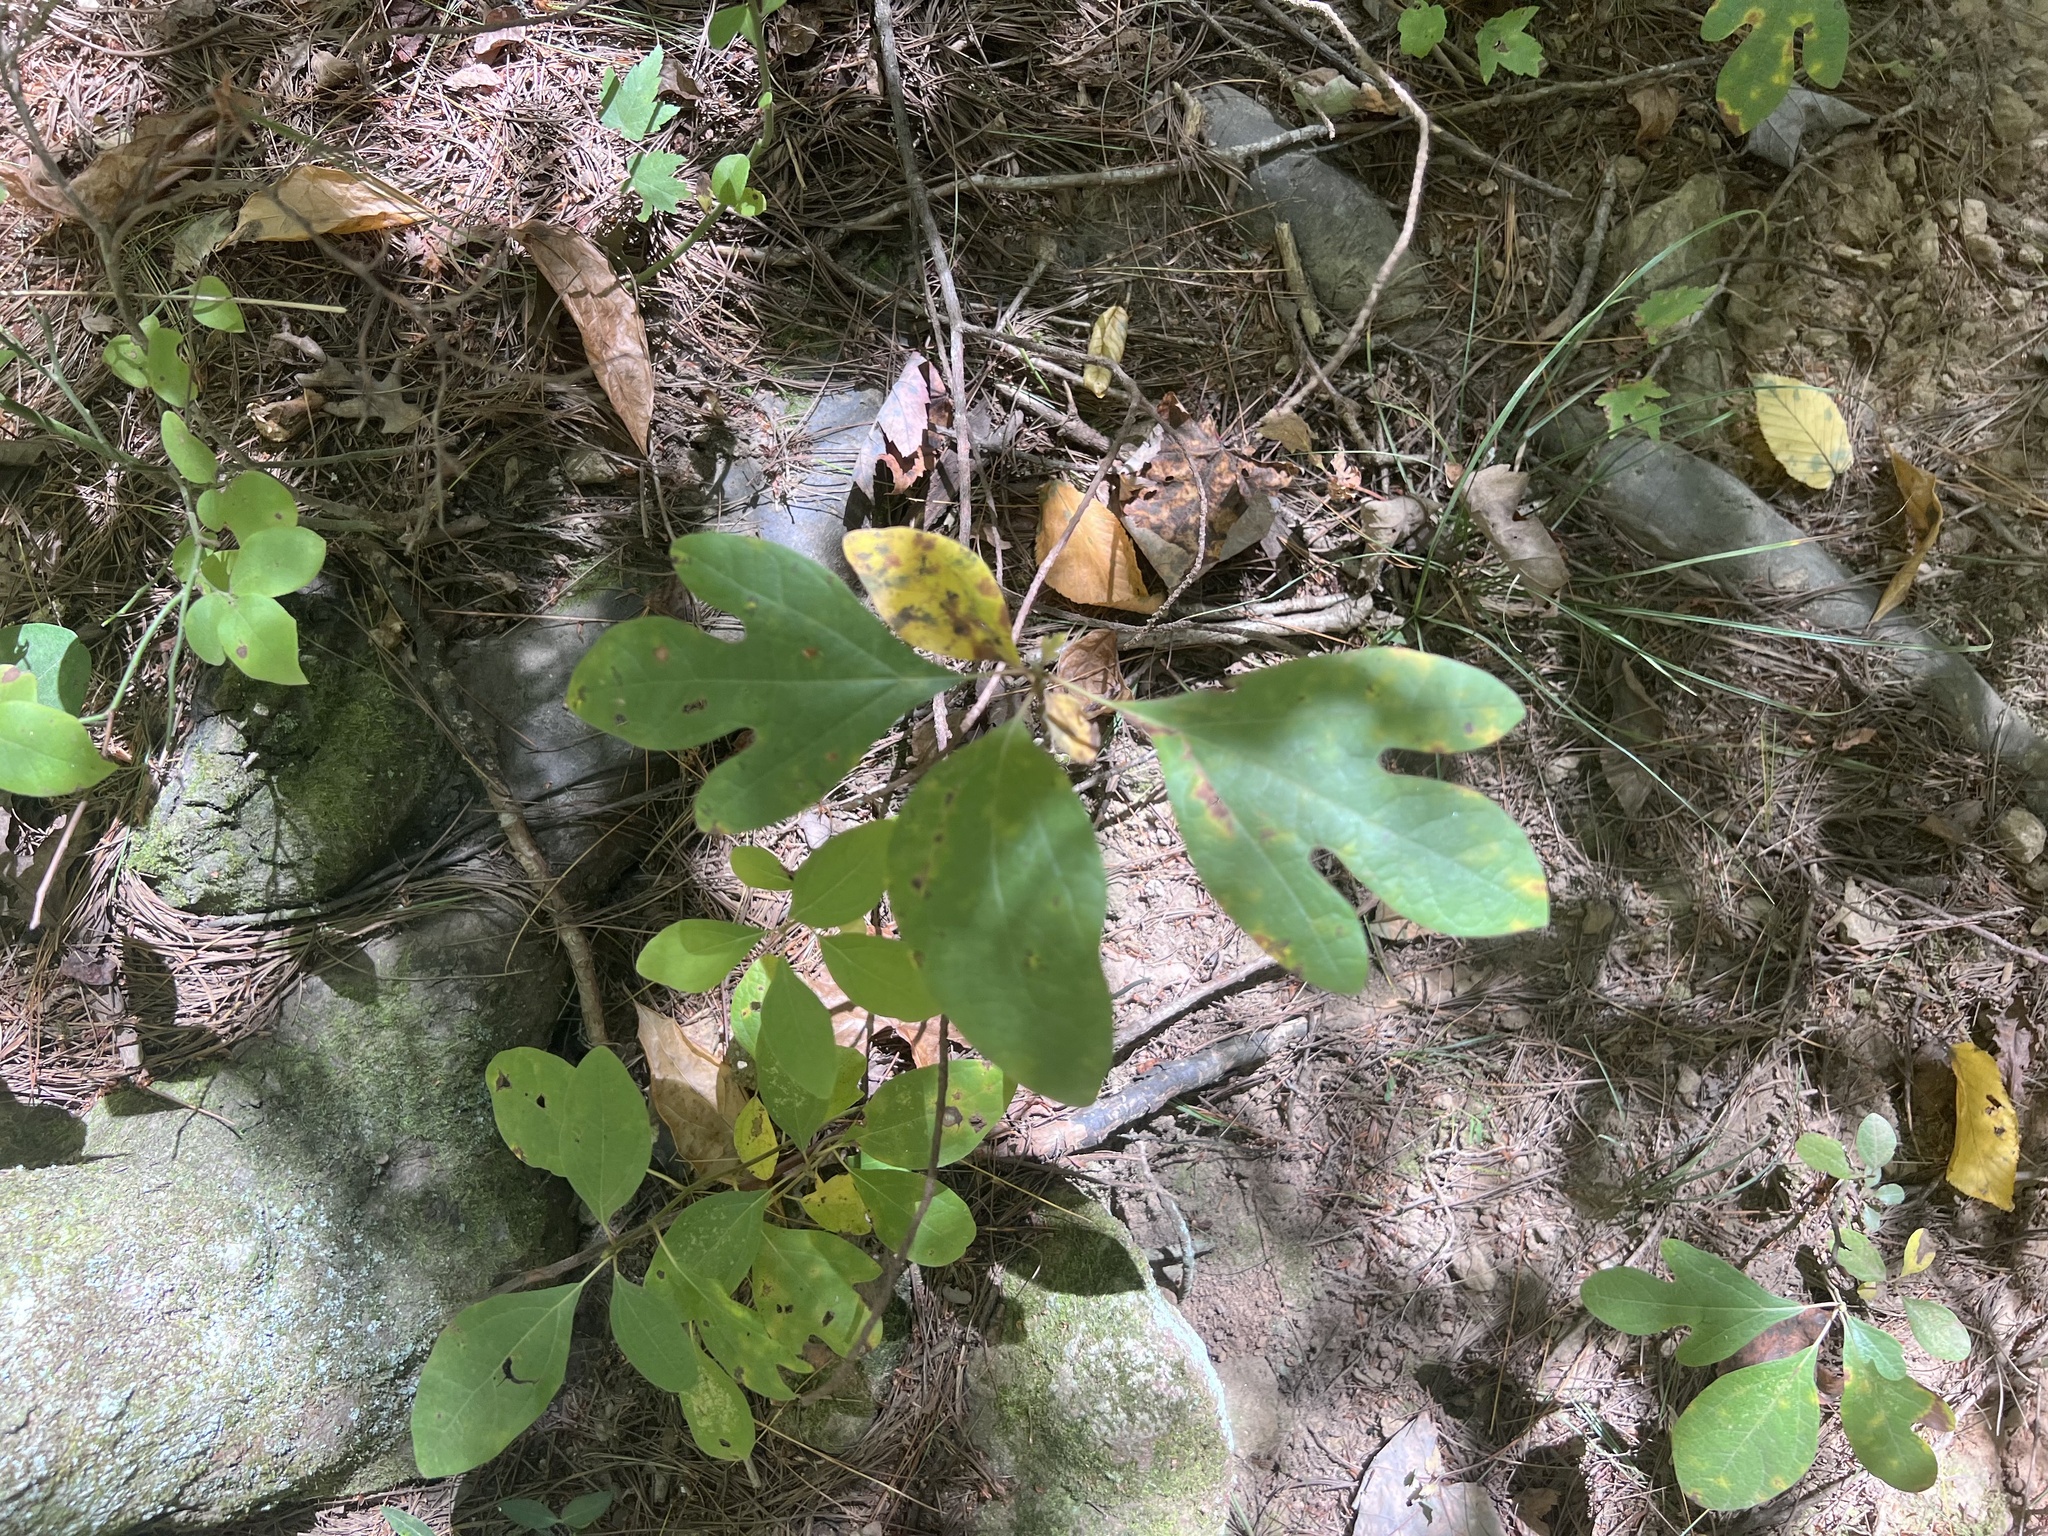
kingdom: Plantae
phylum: Tracheophyta
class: Magnoliopsida
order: Laurales
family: Lauraceae
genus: Sassafras
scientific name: Sassafras albidum
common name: Sassafras
